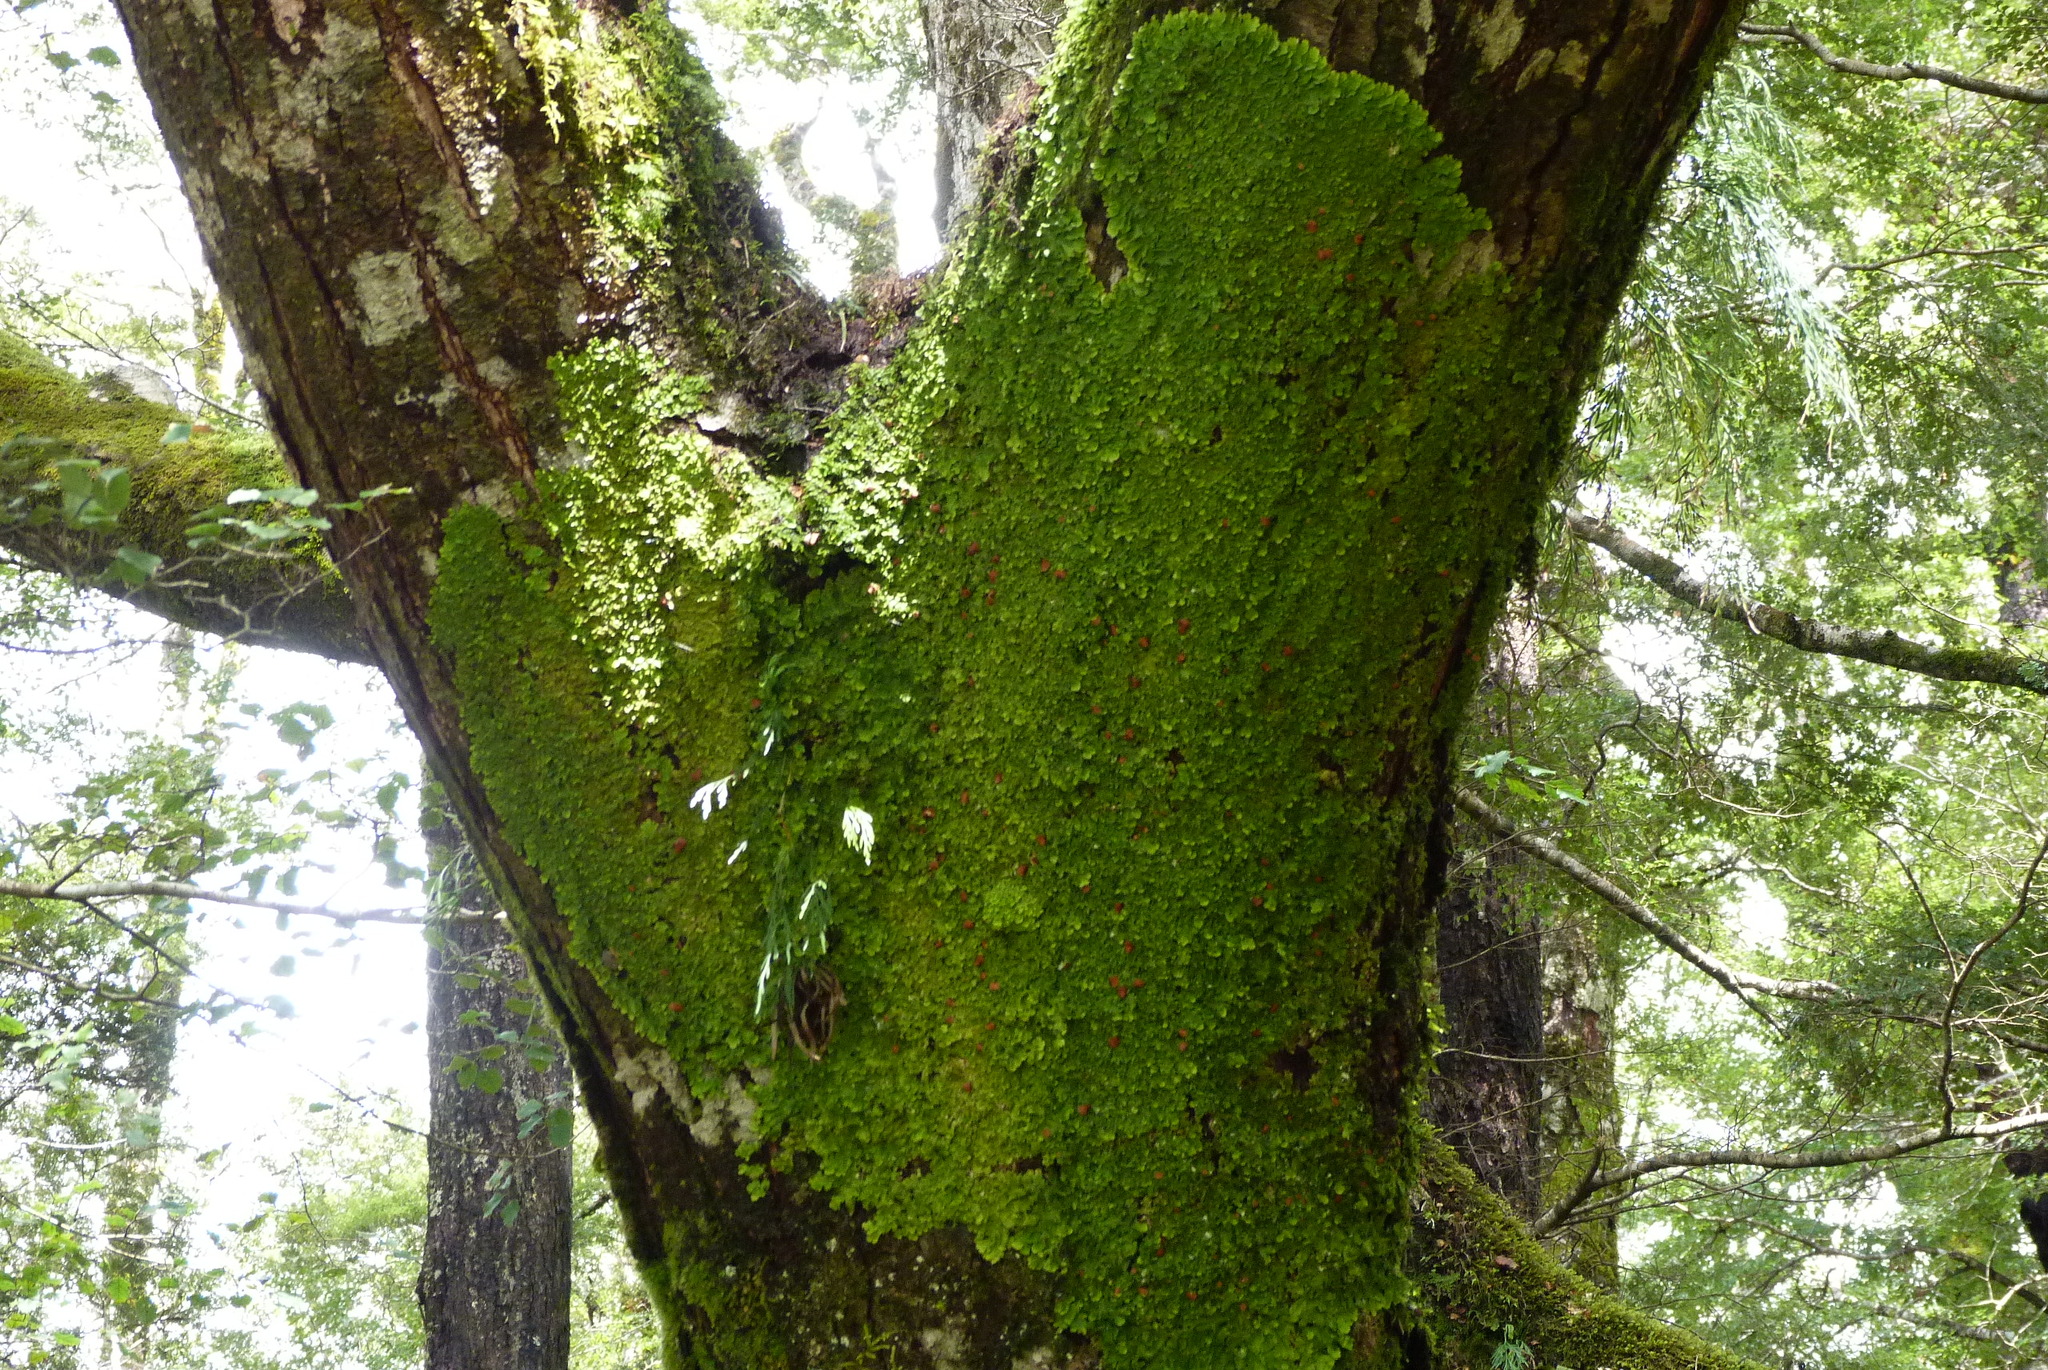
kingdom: Fungi
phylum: Ascomycota
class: Lecanoromycetes
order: Peltigerales
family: Lobariaceae
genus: Lobaria
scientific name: Lobaria adscripta
